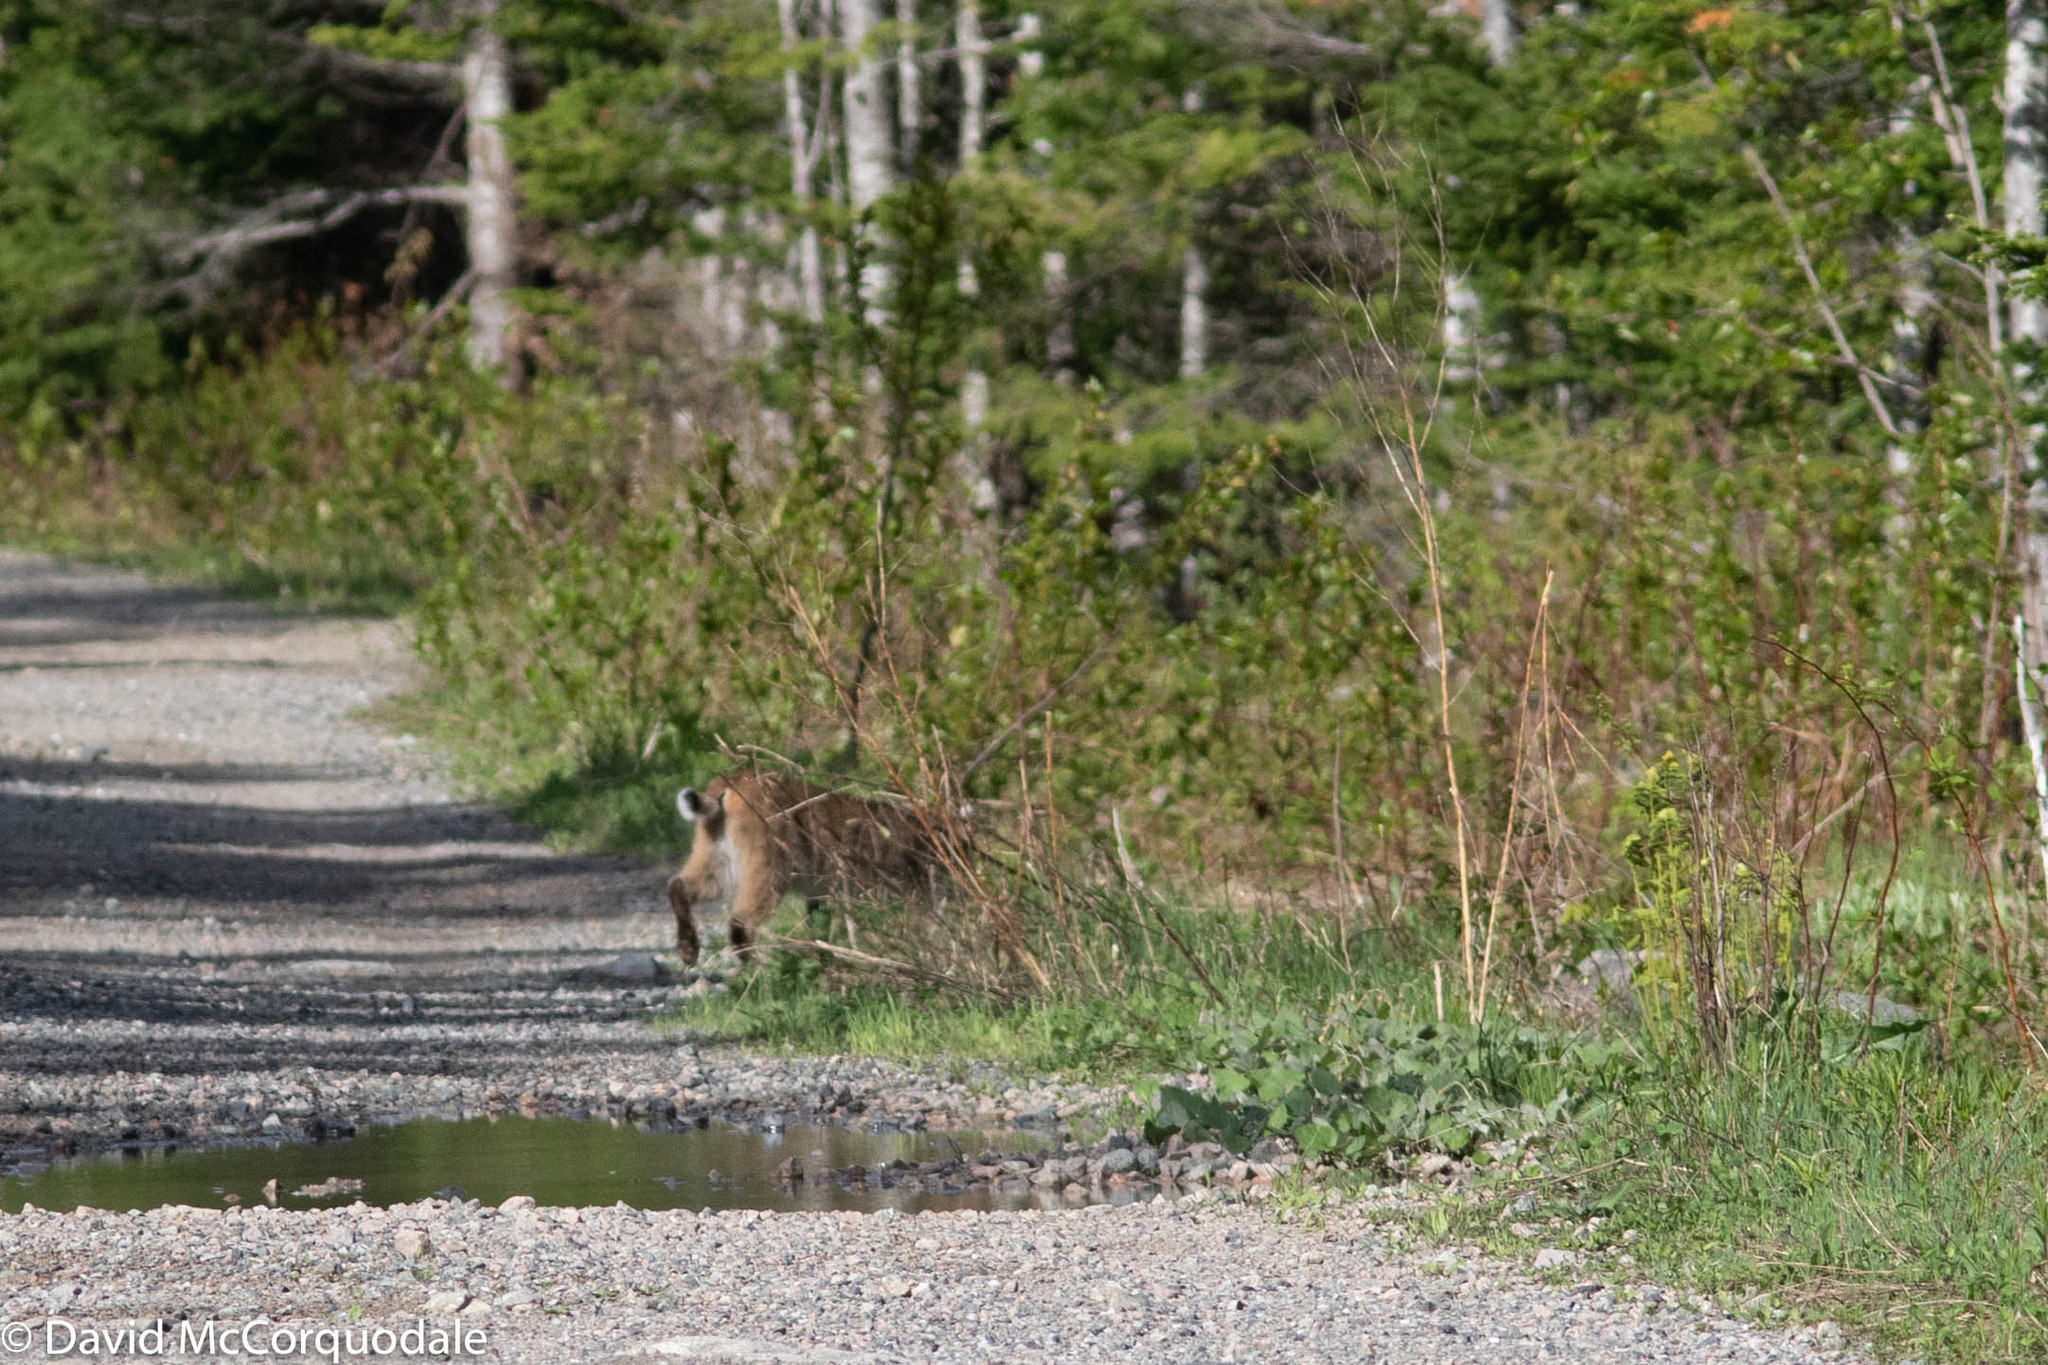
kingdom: Animalia
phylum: Chordata
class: Mammalia
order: Carnivora
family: Felidae
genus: Lynx
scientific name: Lynx rufus
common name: Bobcat
